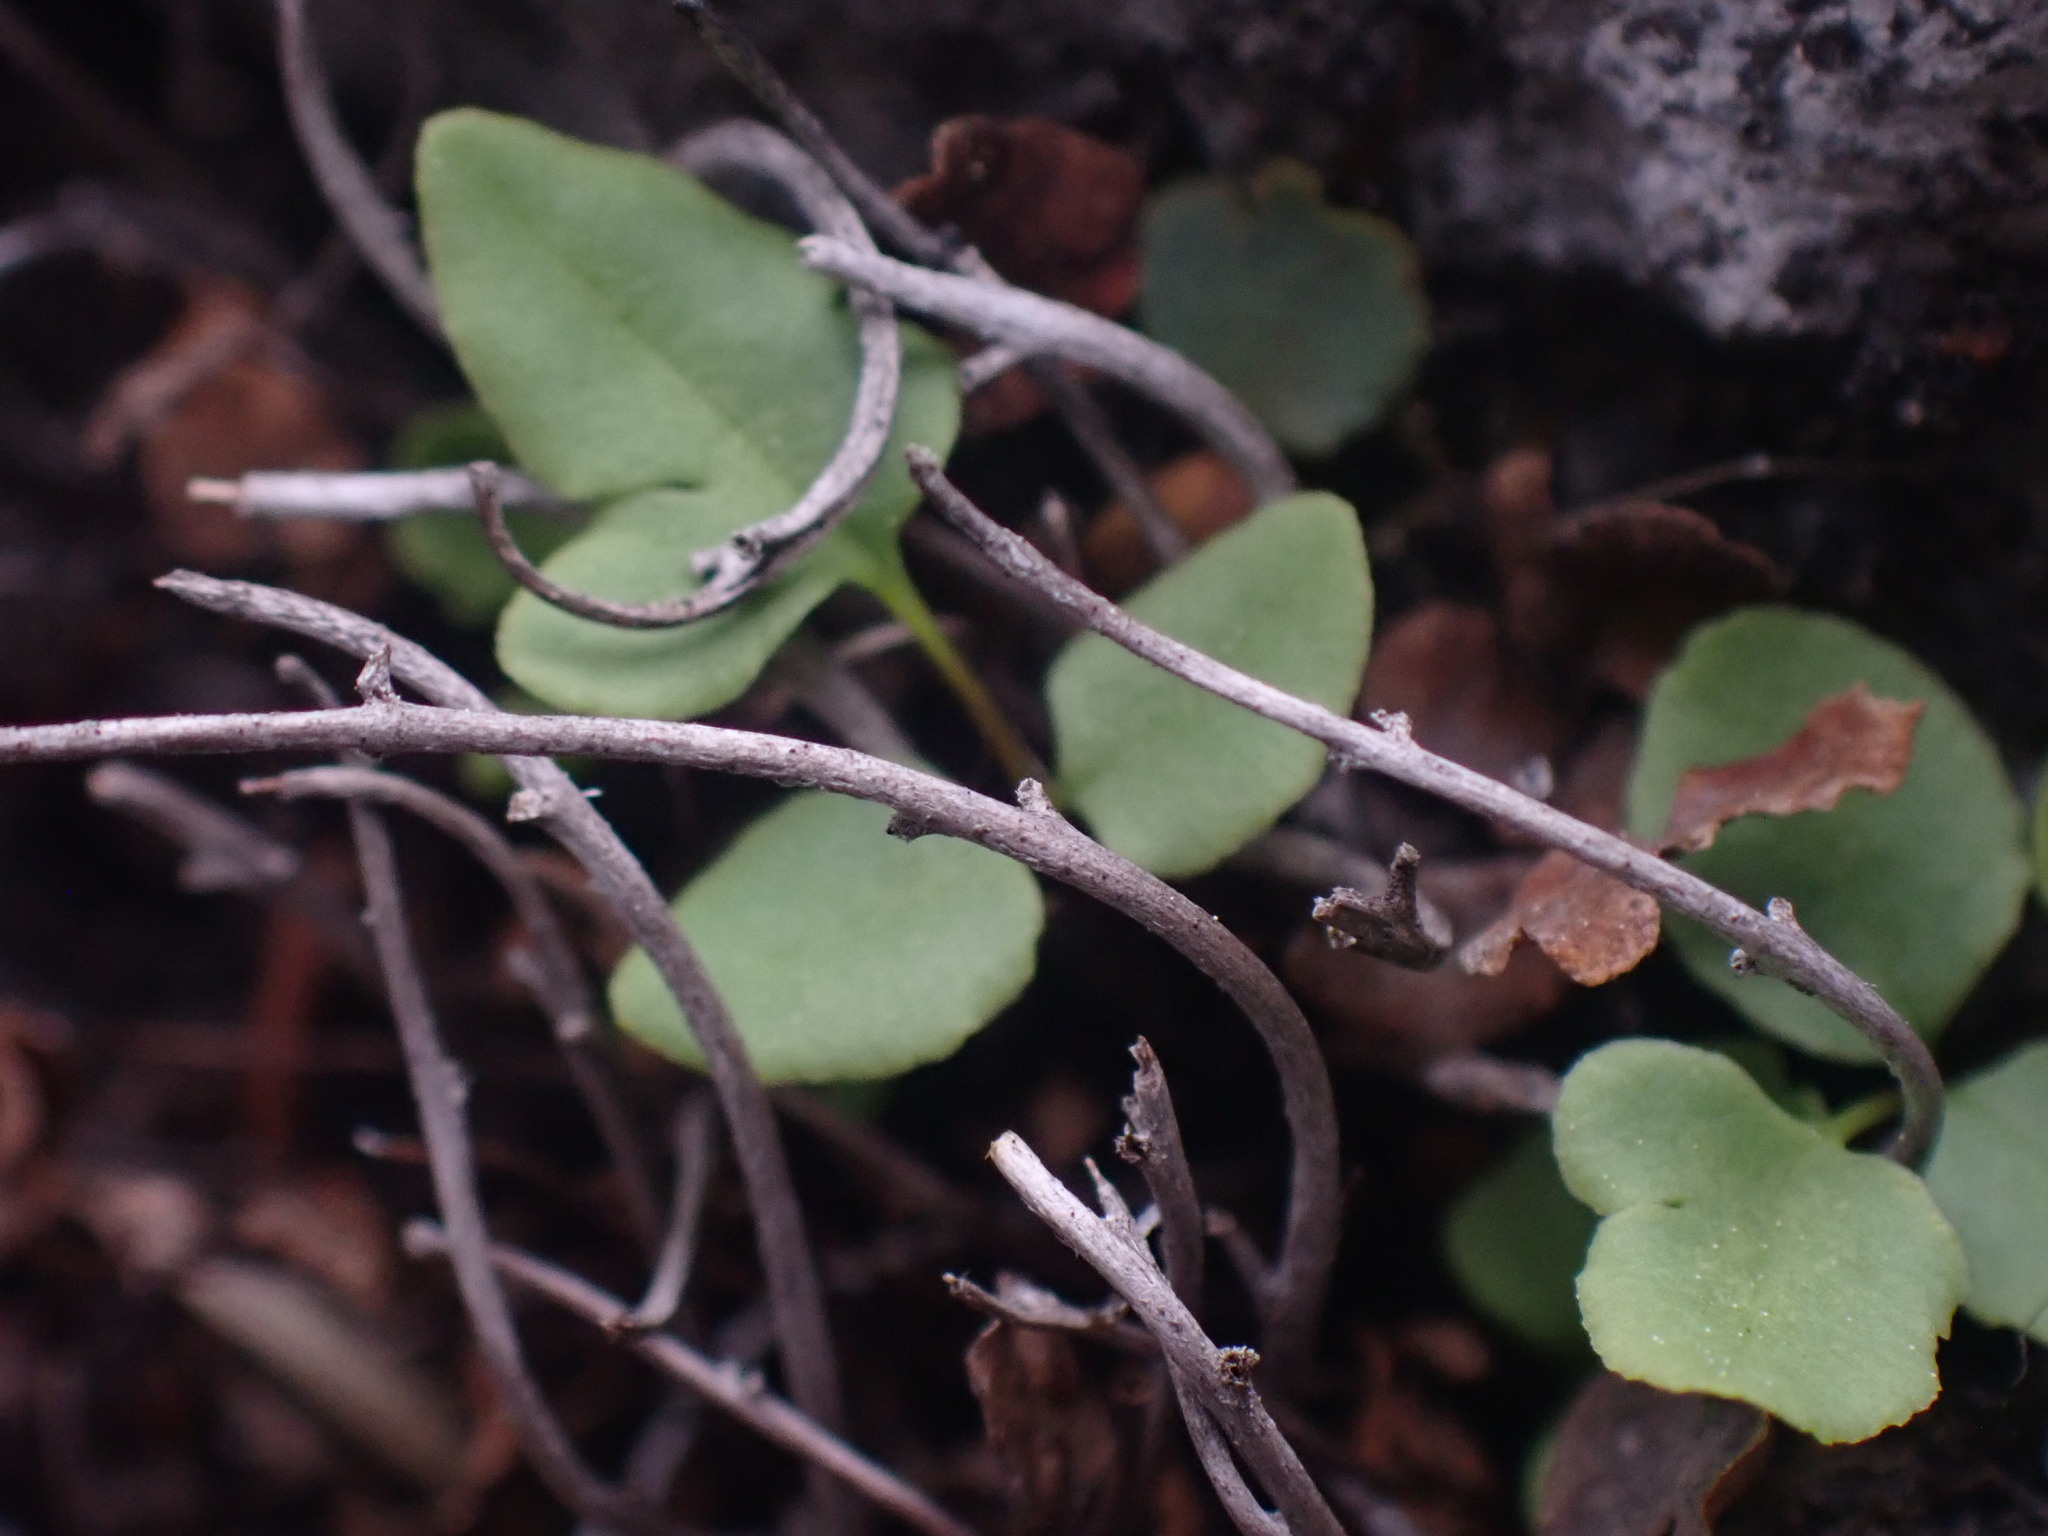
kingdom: Plantae
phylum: Tracheophyta
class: Polypodiopsida
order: Polypodiales
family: Pteridaceae
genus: Pellaea
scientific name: Pellaea glabella
